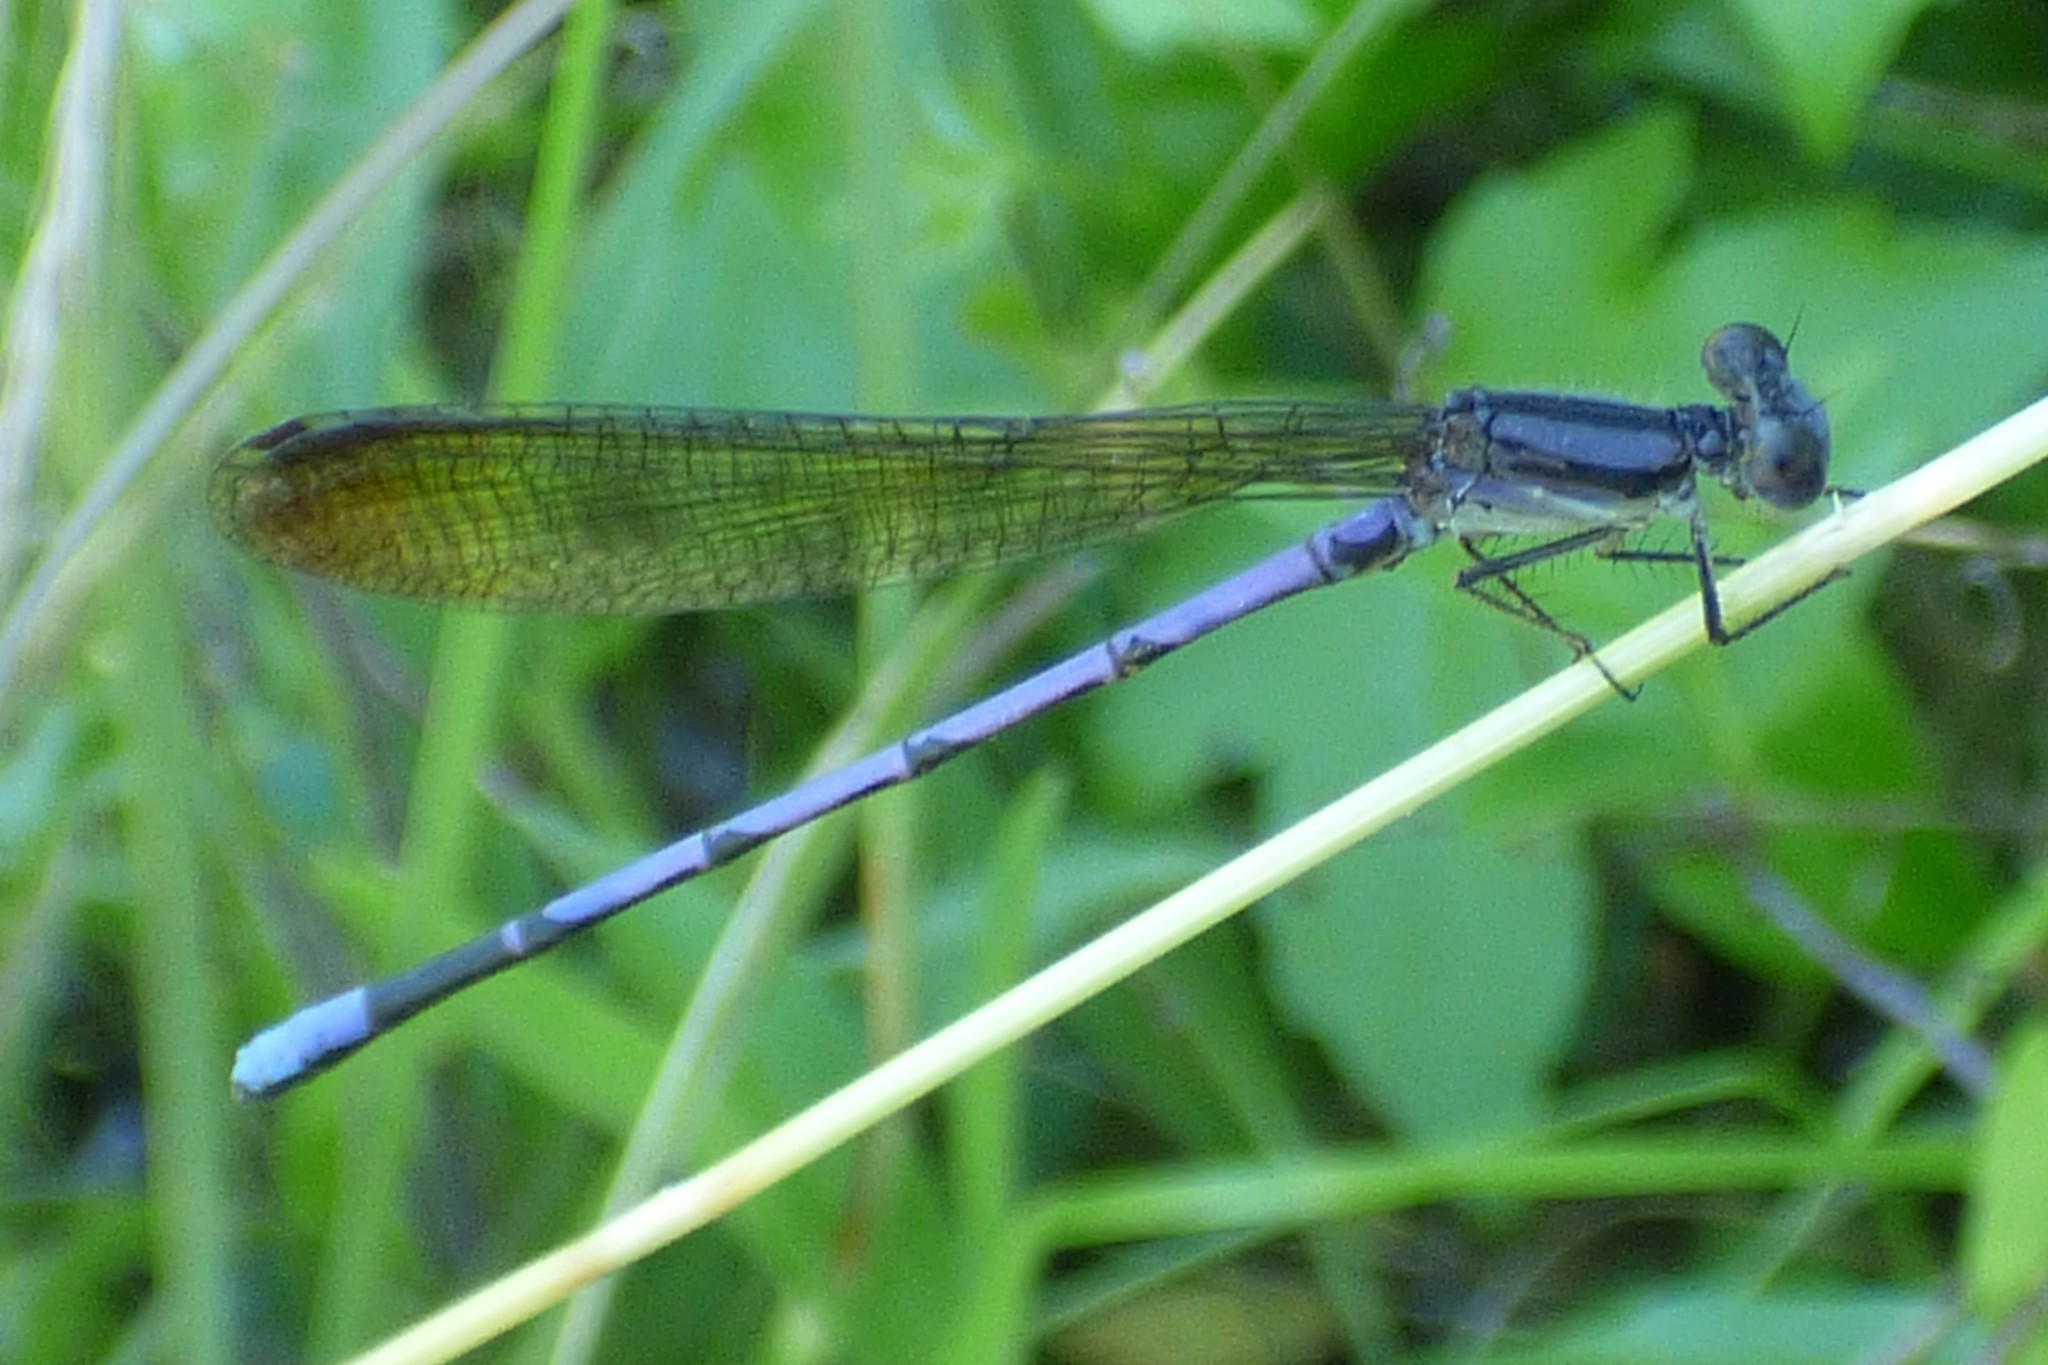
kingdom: Animalia
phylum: Arthropoda
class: Insecta
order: Odonata
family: Coenagrionidae
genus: Argia
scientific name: Argia fumipennis
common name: Variable dancer
